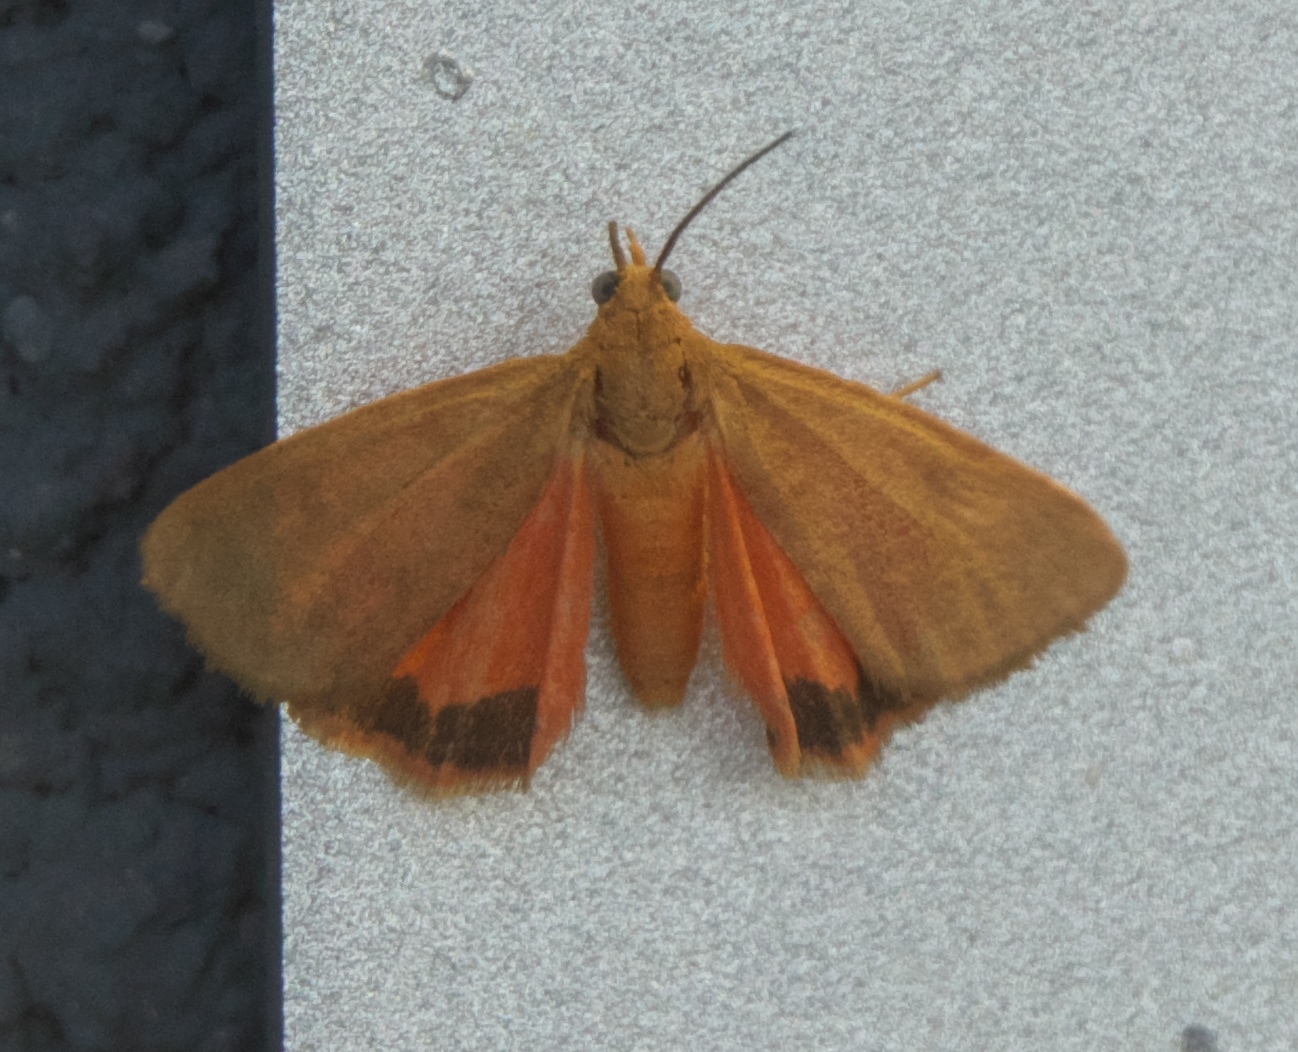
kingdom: Animalia
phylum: Arthropoda
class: Insecta
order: Lepidoptera
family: Erebidae
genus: Virbia
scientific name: Virbia aurantiaca
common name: Orange virbia moth
